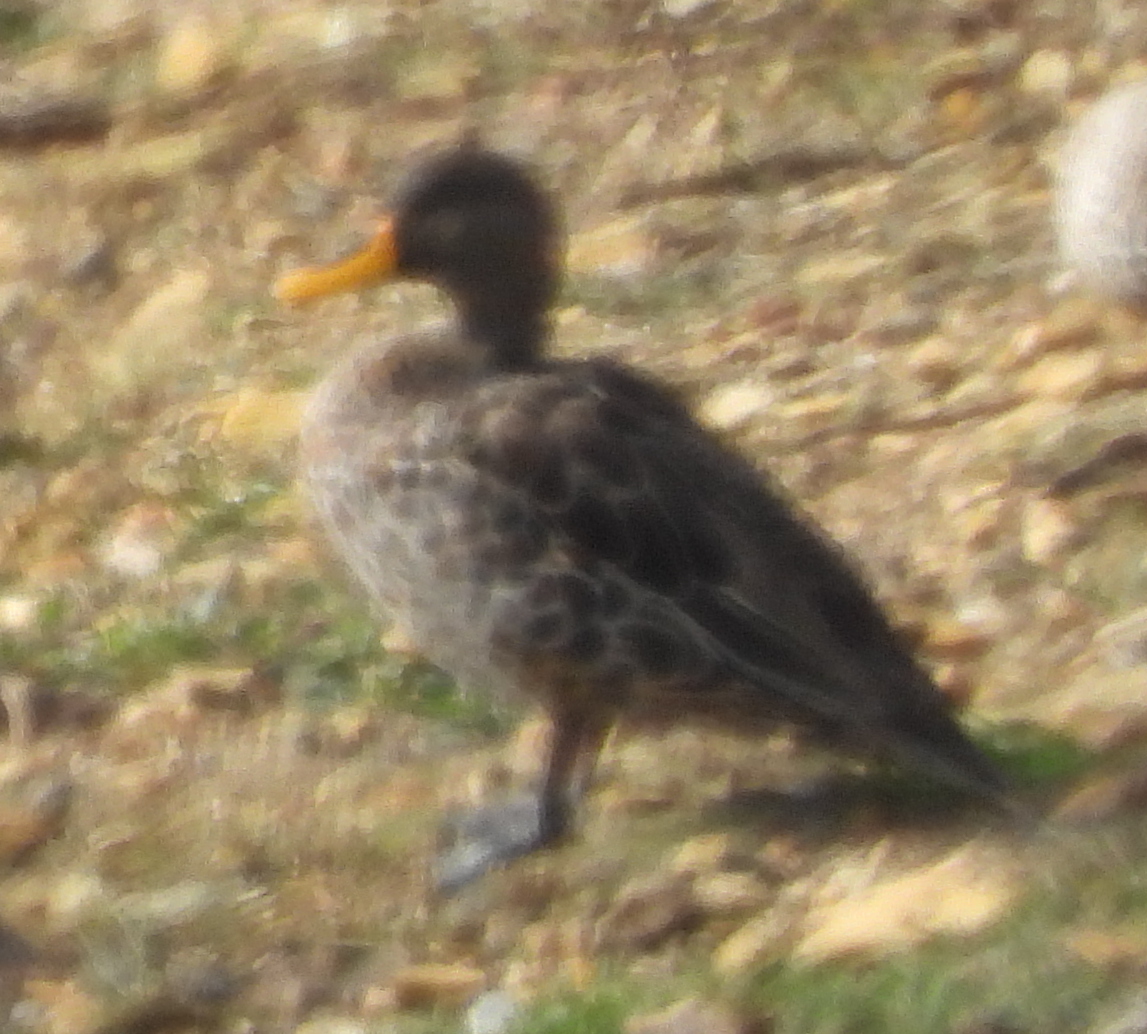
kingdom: Animalia
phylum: Chordata
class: Aves
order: Anseriformes
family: Anatidae
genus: Anas
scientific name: Anas undulata
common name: Yellow-billed duck
